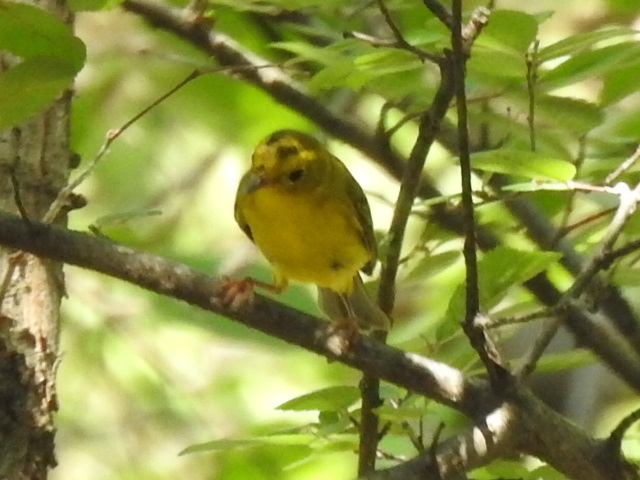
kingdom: Animalia
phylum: Chordata
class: Aves
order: Passeriformes
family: Parulidae
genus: Cardellina
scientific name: Cardellina pusilla
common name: Wilson's warbler
